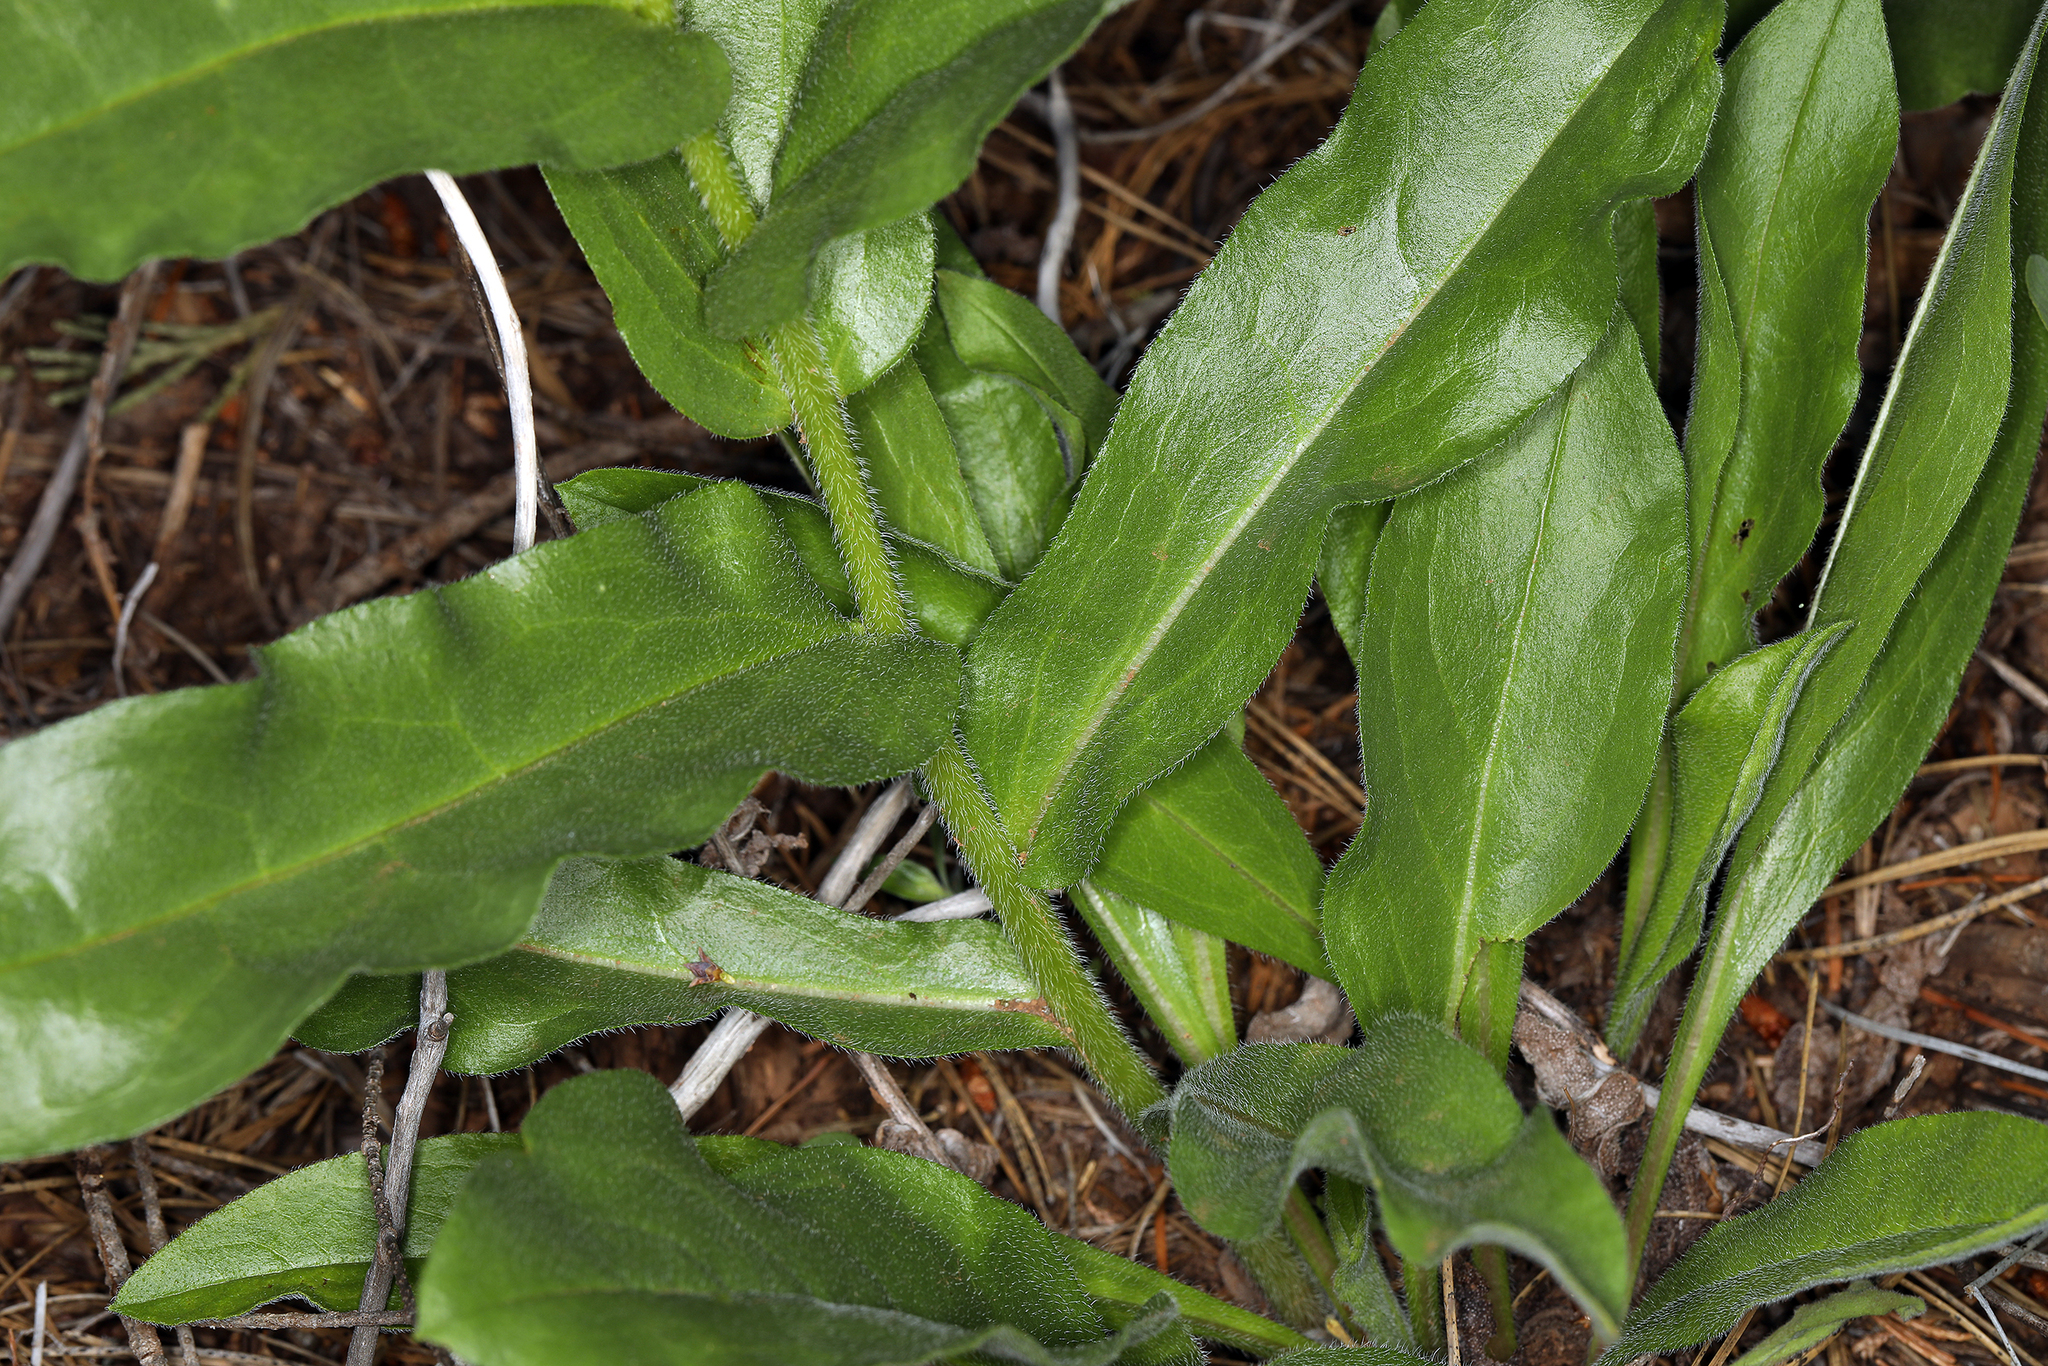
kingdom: Plantae
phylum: Tracheophyta
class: Magnoliopsida
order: Boraginales
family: Boraginaceae
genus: Andersonglossum
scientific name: Andersonglossum occidentale
